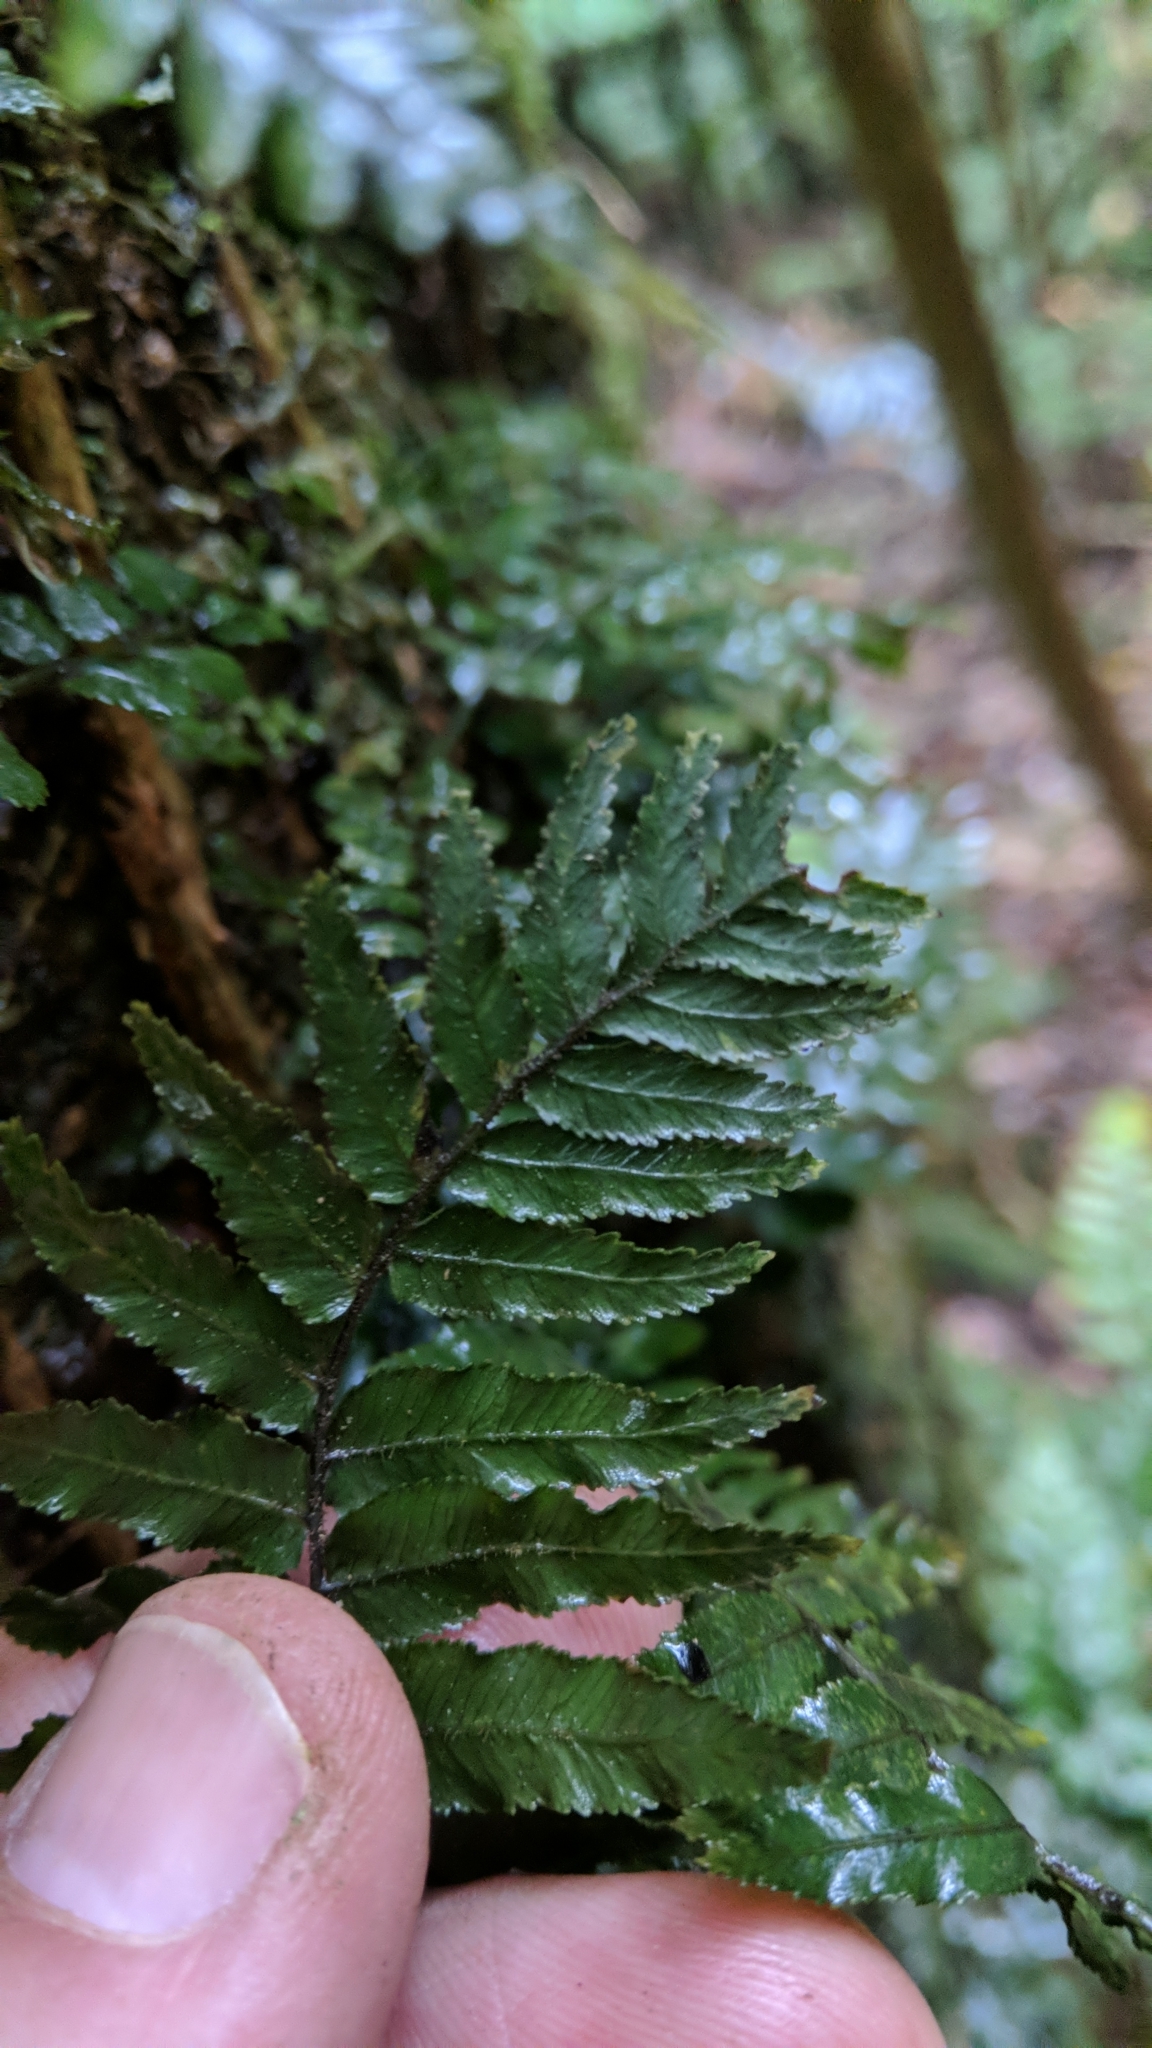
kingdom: Plantae
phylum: Tracheophyta
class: Polypodiopsida
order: Polypodiales
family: Blechnaceae
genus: Icarus
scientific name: Icarus filiformis
